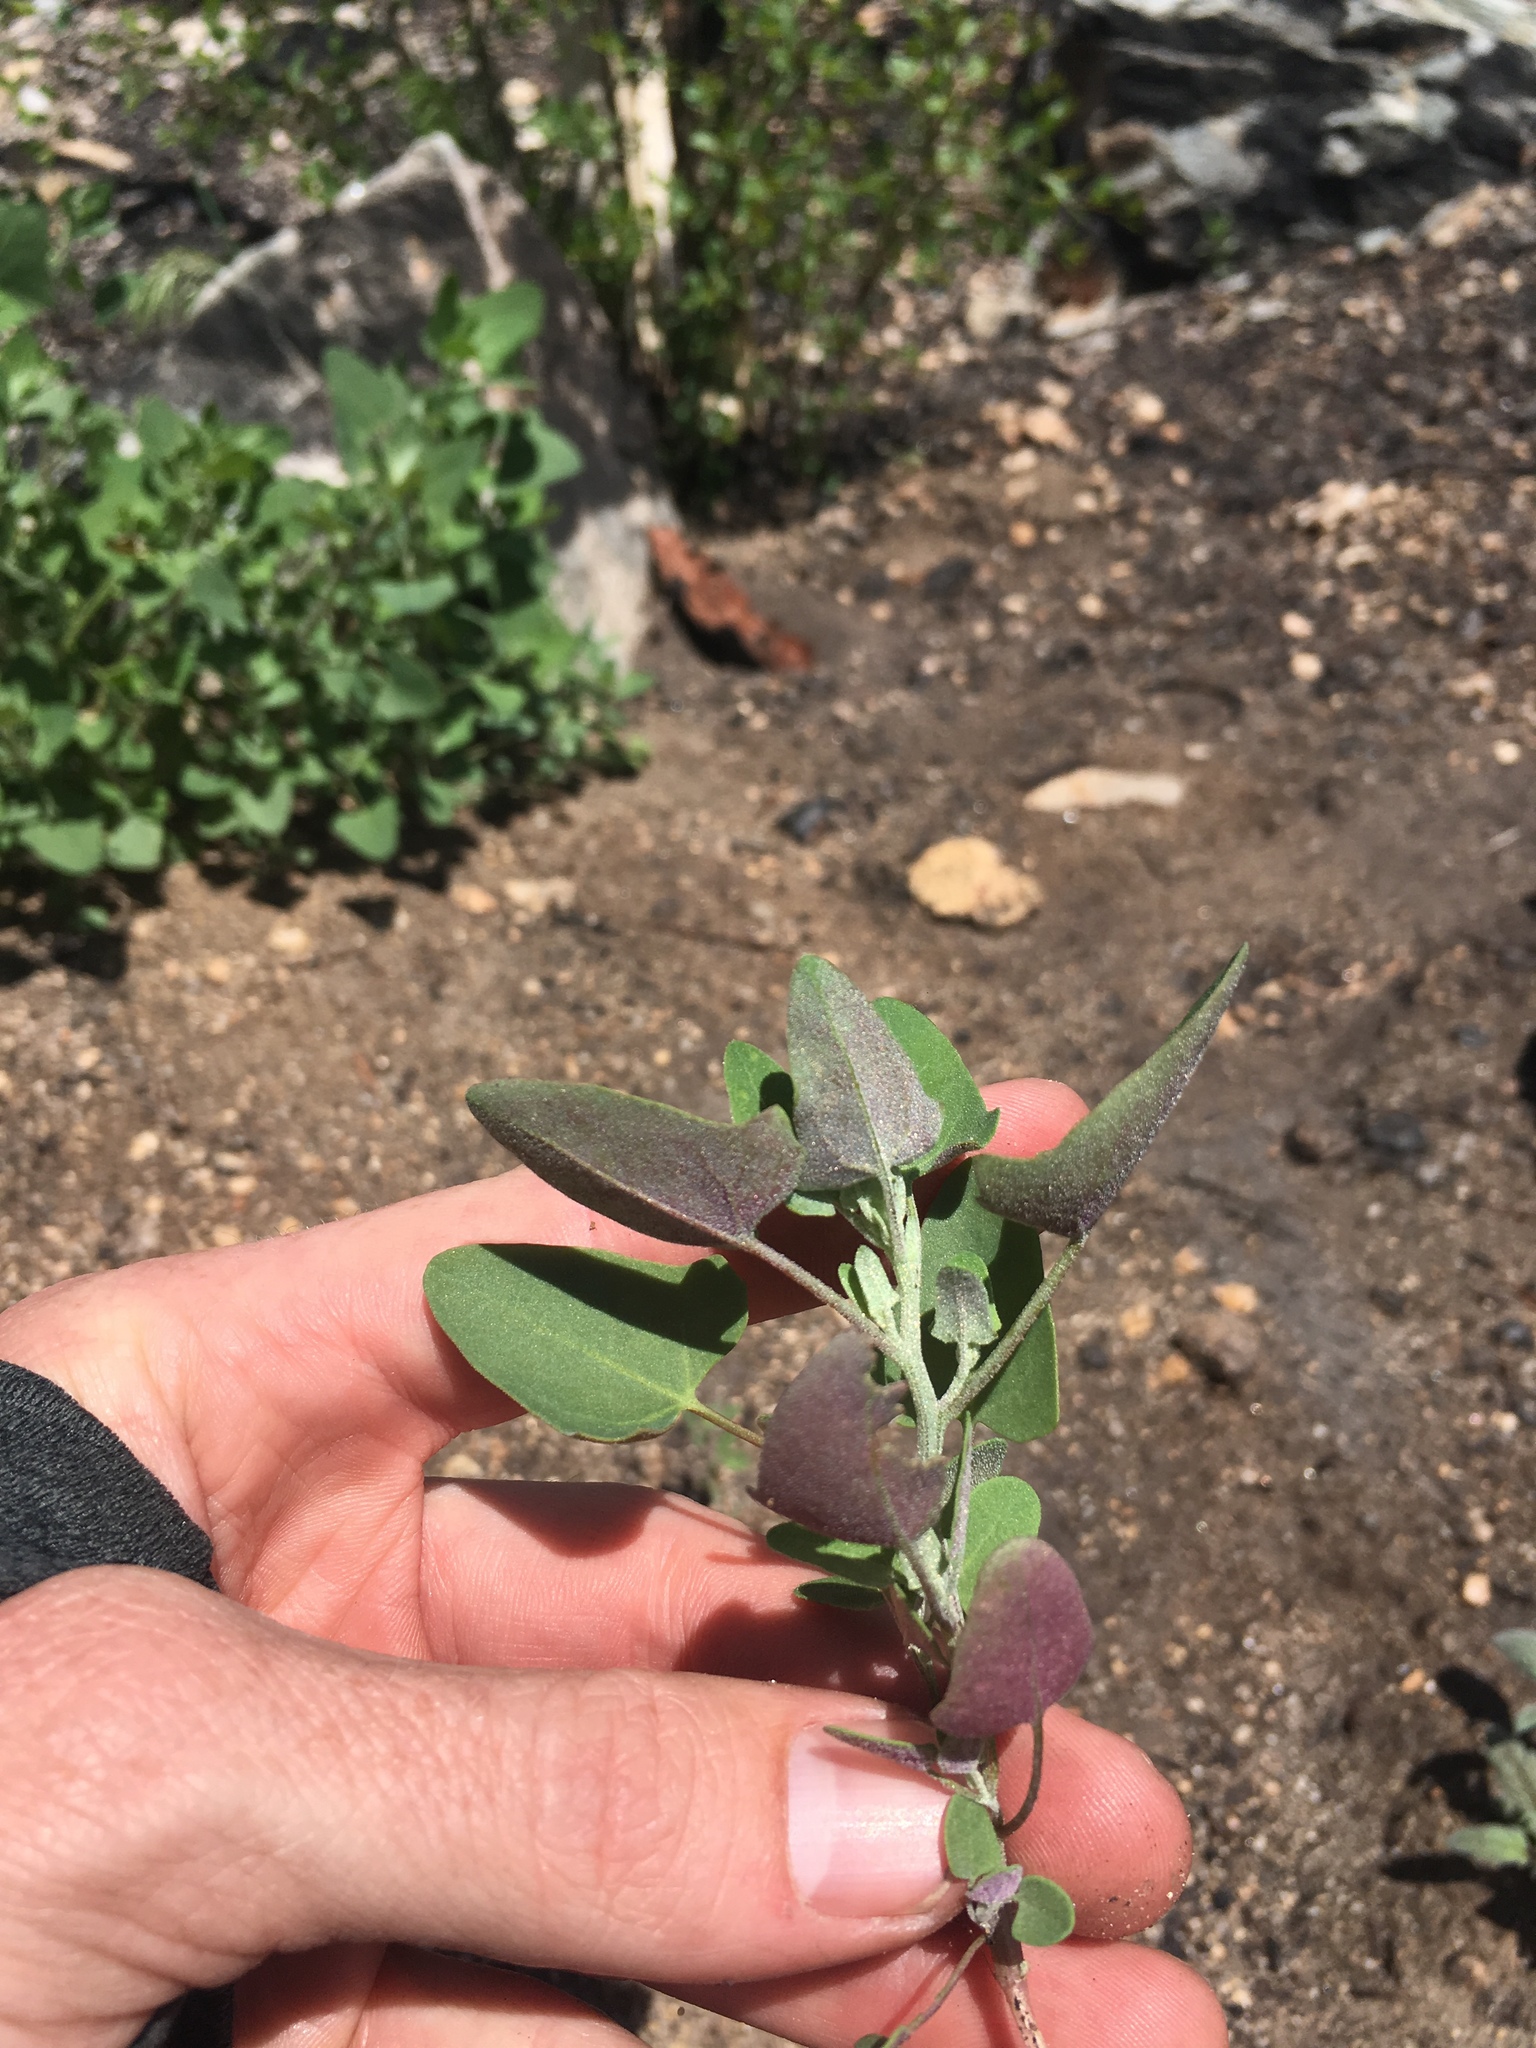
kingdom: Plantae
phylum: Tracheophyta
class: Magnoliopsida
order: Caryophyllales
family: Amaranthaceae
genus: Chenopodium
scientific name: Chenopodium fremontii
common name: Fremont's goosefoot
